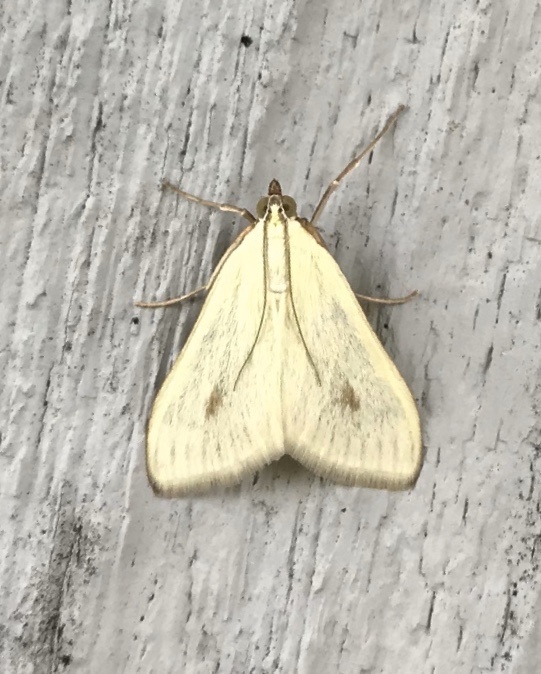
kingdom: Animalia
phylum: Arthropoda
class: Insecta
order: Lepidoptera
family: Crambidae
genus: Sitochroa
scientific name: Sitochroa palealis
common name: Greenish-yellow sitochroa moth
